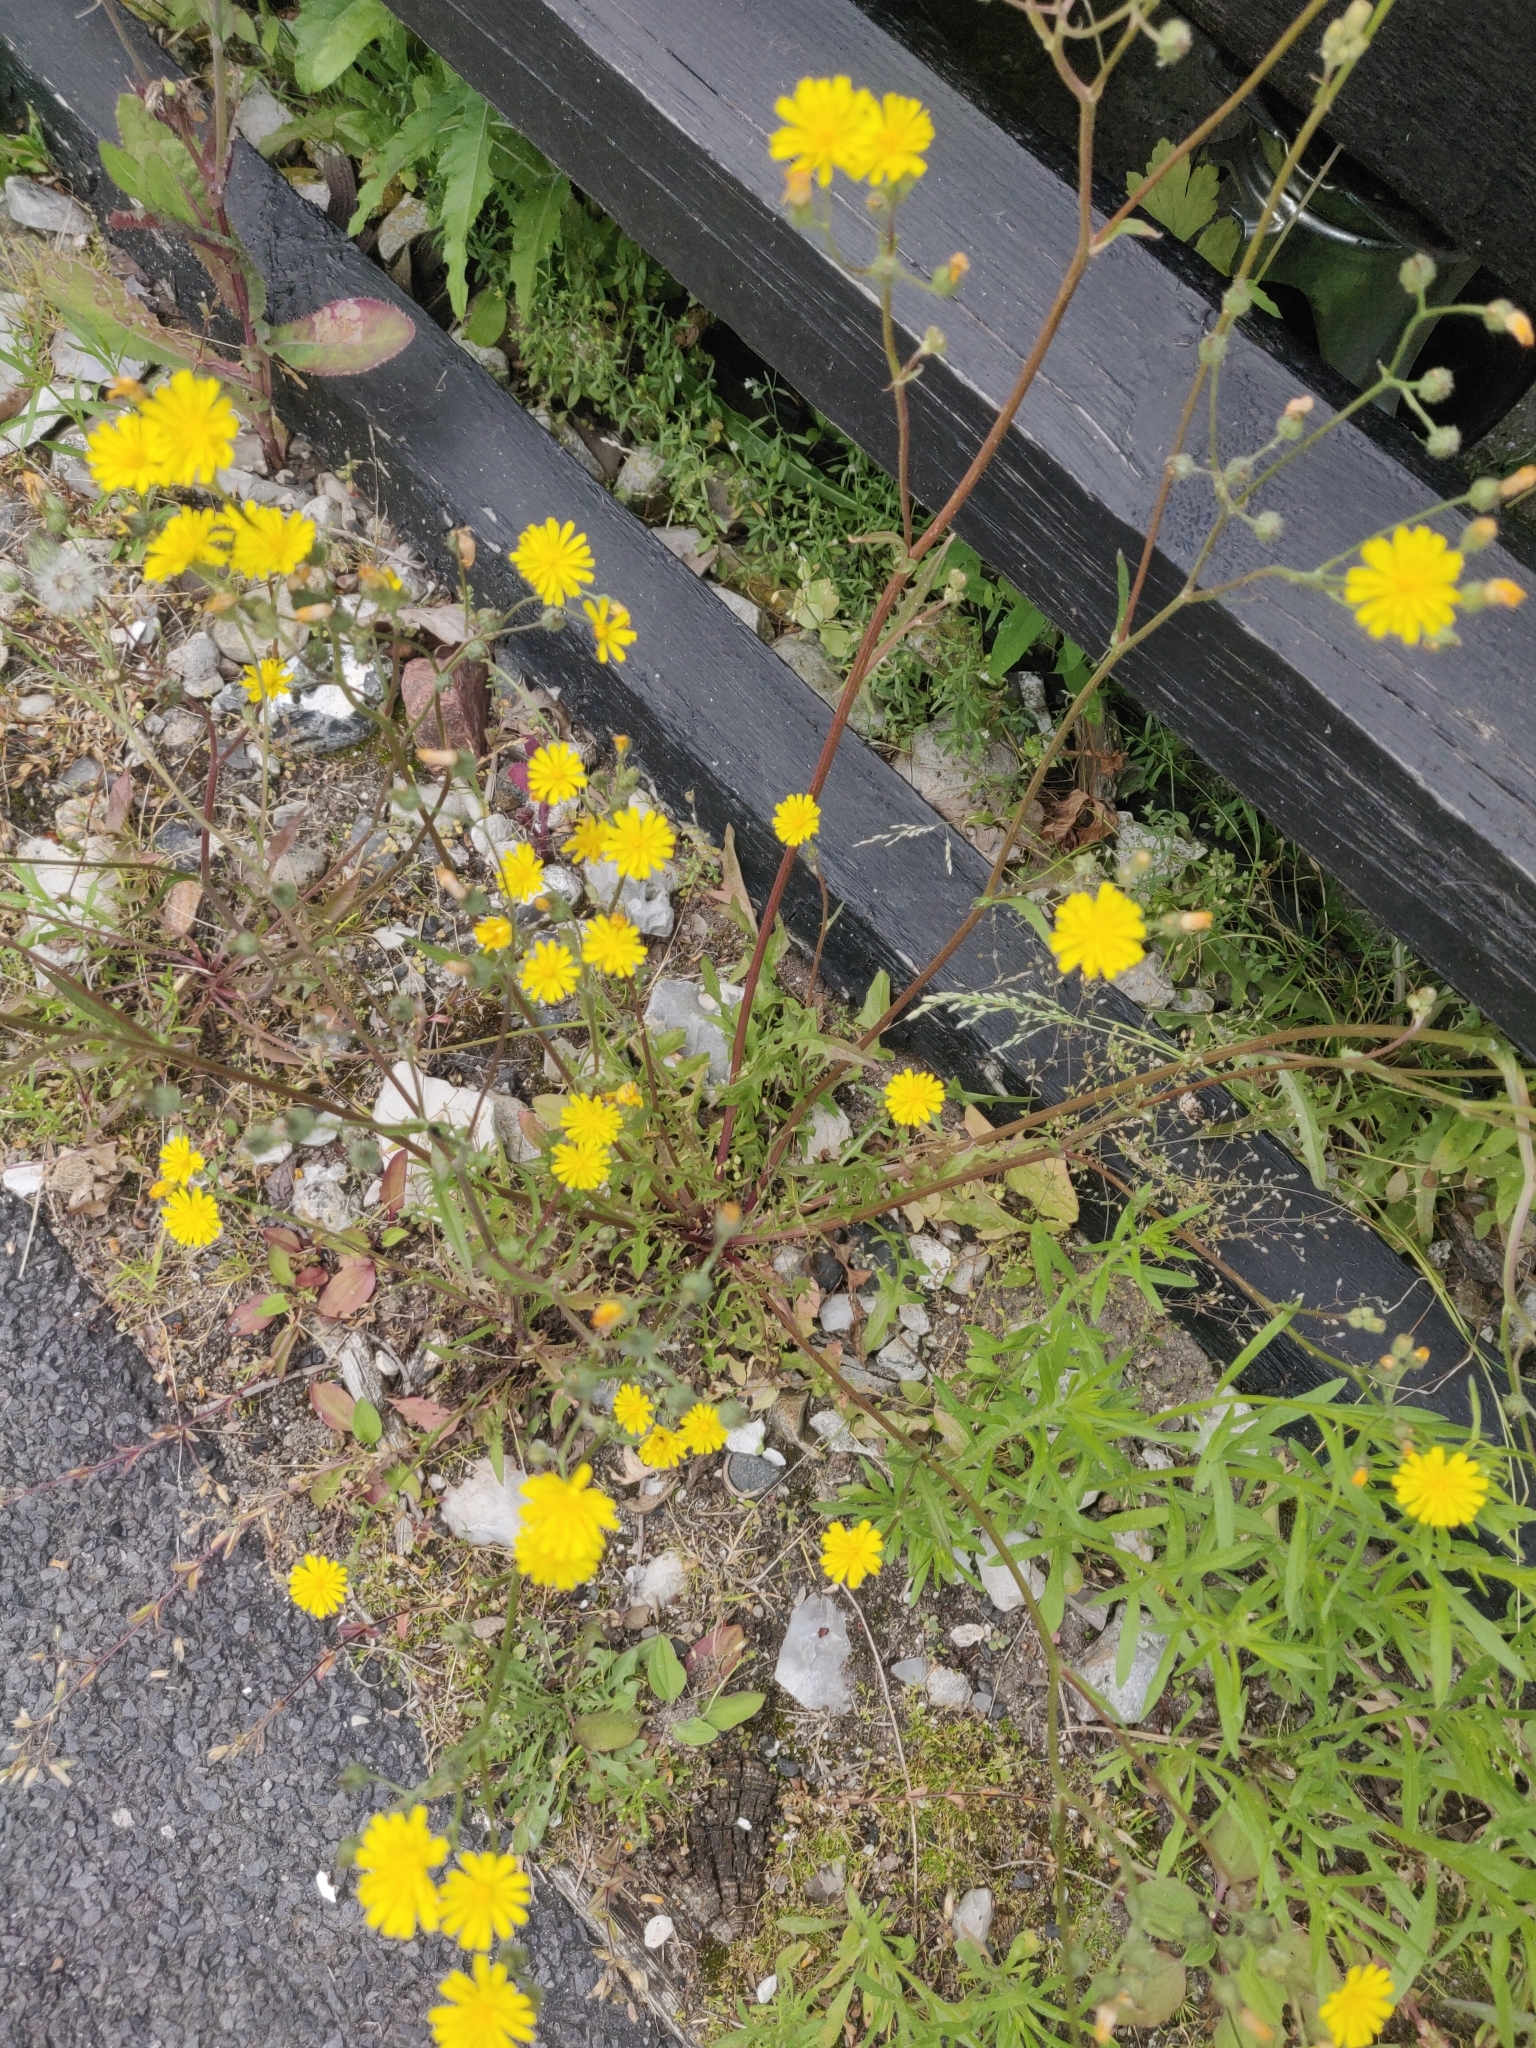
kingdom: Plantae
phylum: Tracheophyta
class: Magnoliopsida
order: Asterales
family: Asteraceae
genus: Crepis
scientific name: Crepis capillaris
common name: Smooth hawksbeard
